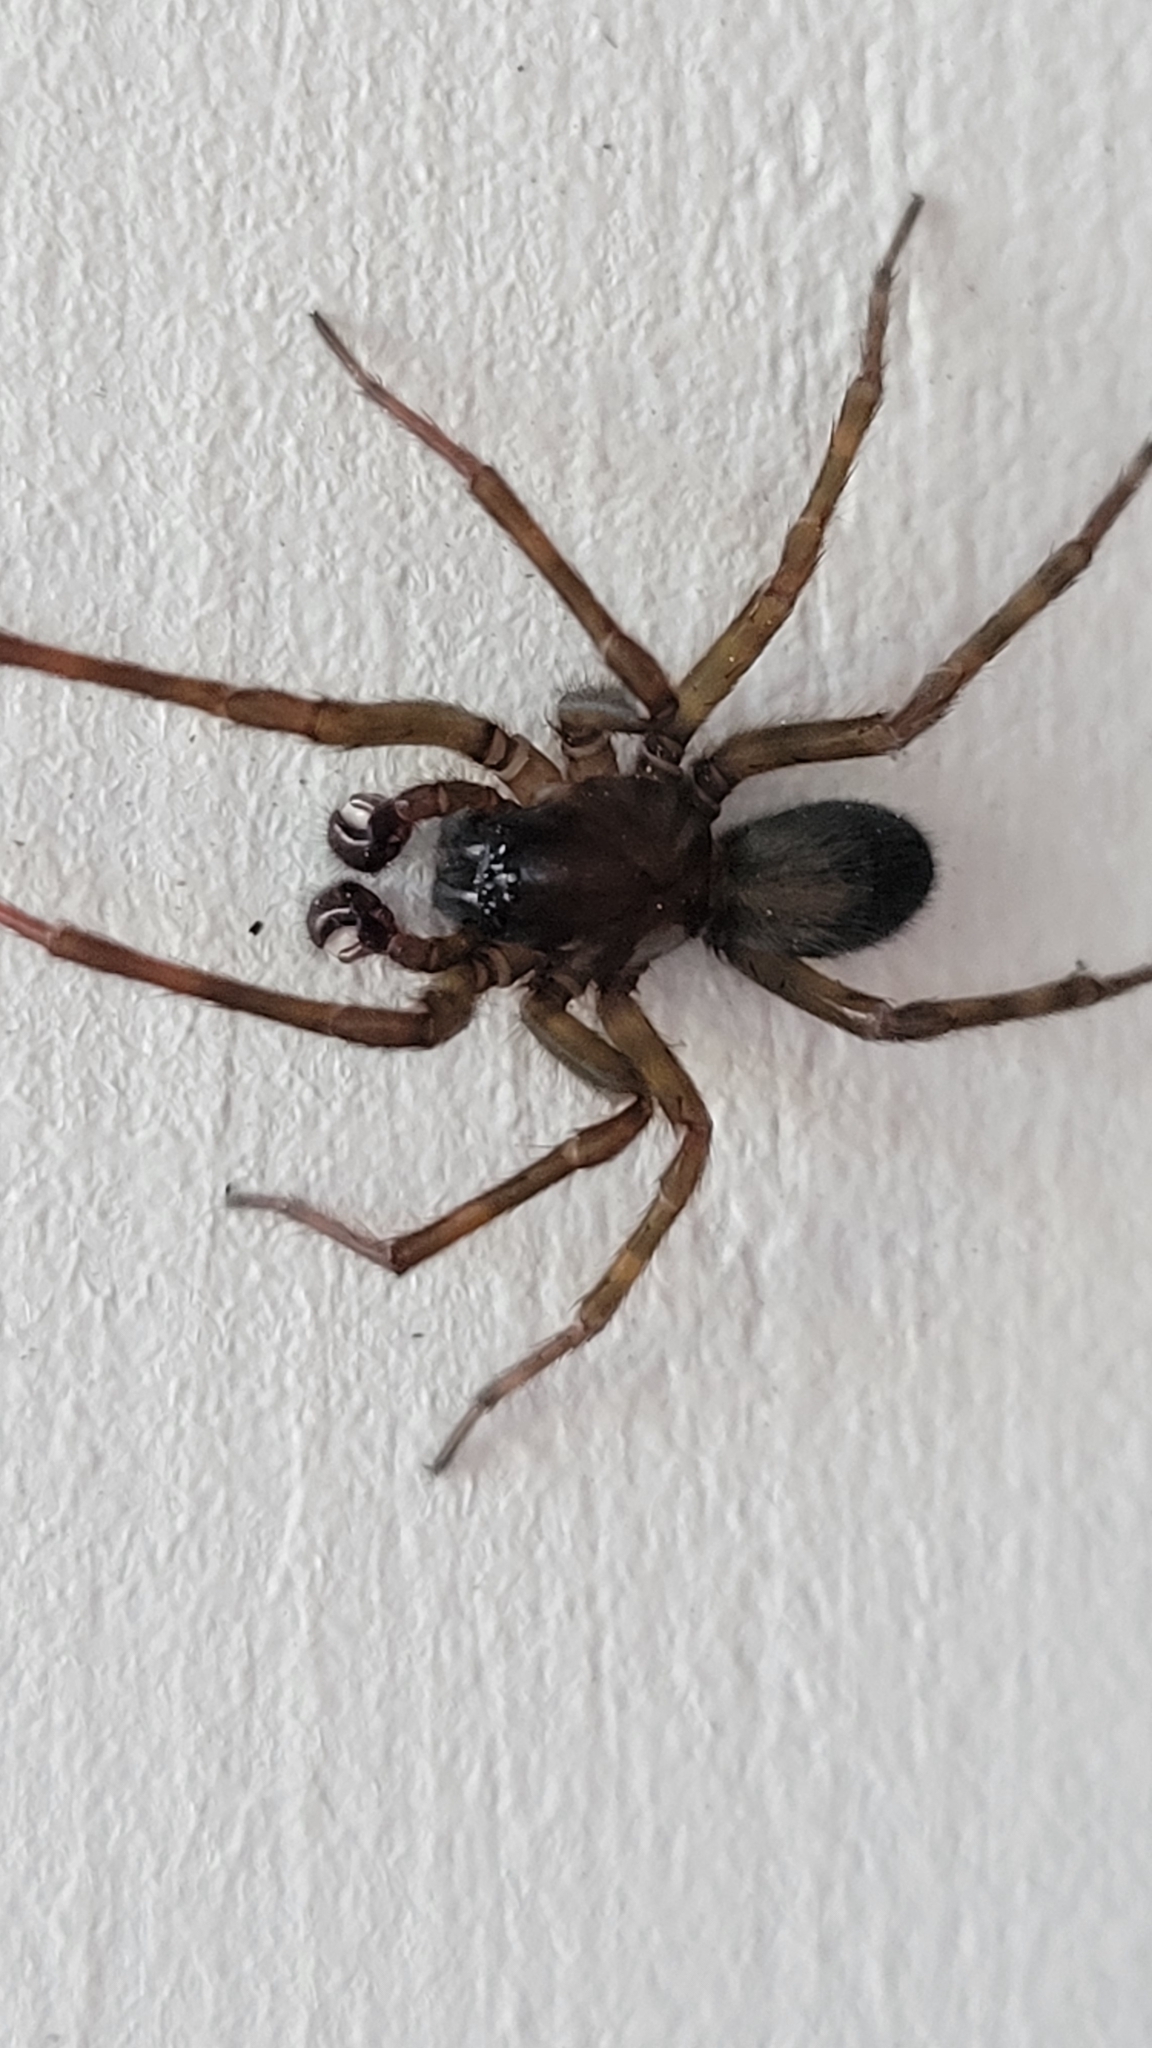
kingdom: Animalia
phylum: Arthropoda
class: Arachnida
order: Araneae
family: Amaurobiidae
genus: Amaurobius
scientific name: Amaurobius ferox
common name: Black laceweaver
